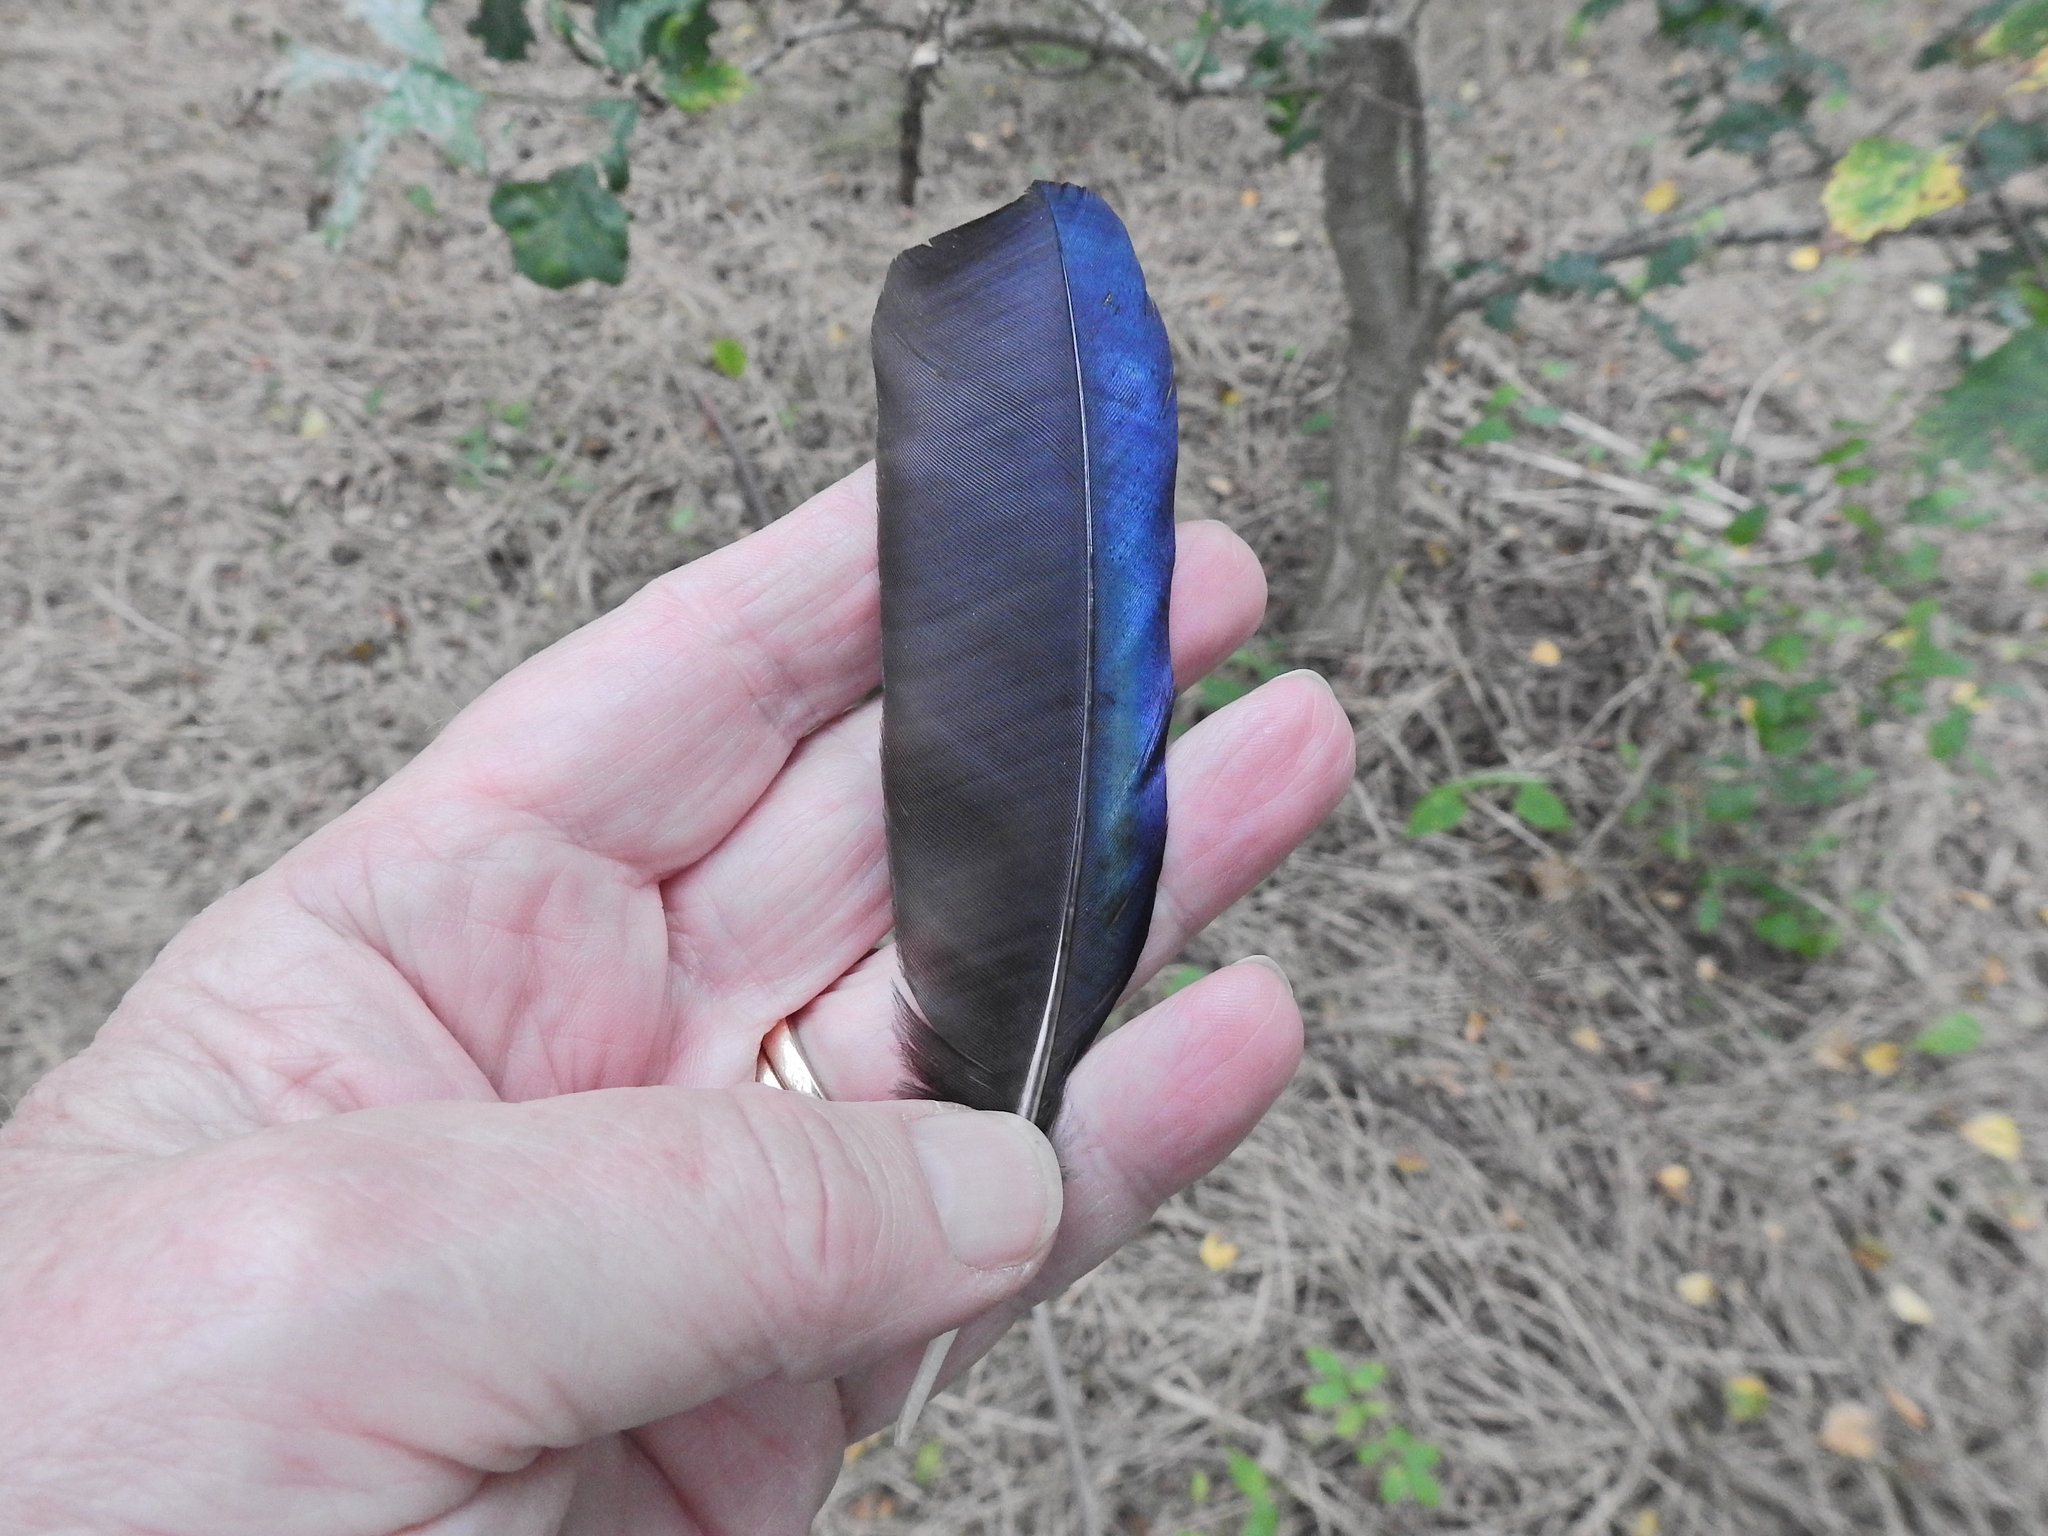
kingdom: Animalia
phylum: Chordata
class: Aves
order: Passeriformes
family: Corvidae
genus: Pica
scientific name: Pica pica
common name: Eurasian magpie
